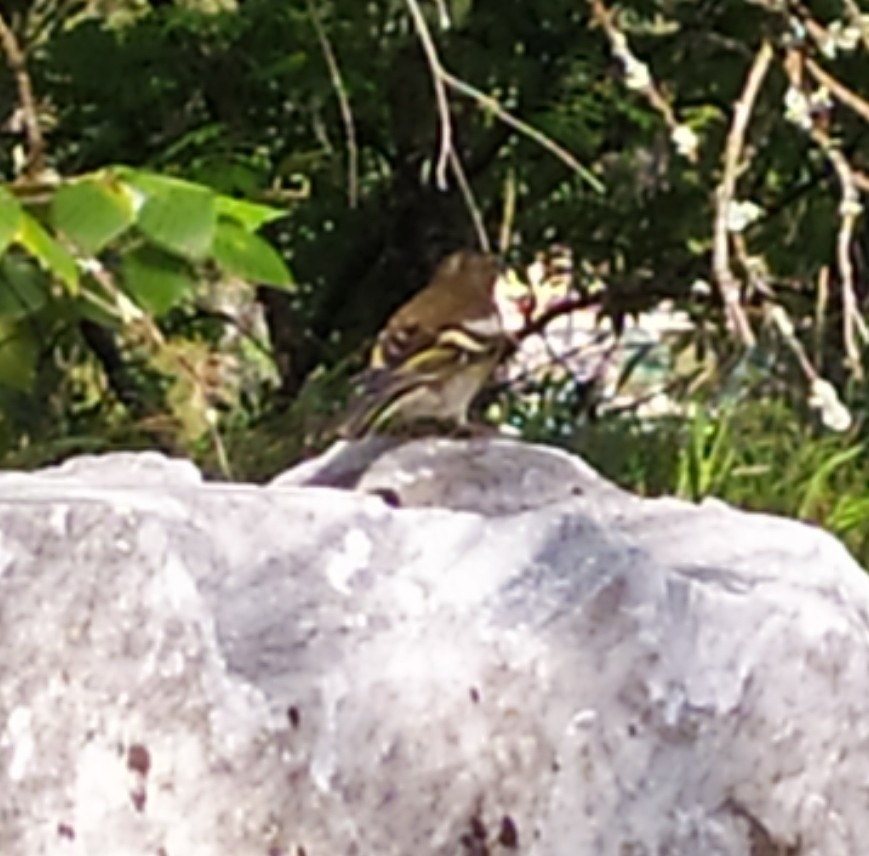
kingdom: Animalia
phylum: Chordata
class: Aves
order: Passeriformes
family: Fringillidae
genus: Fringilla
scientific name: Fringilla coelebs
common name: Common chaffinch
